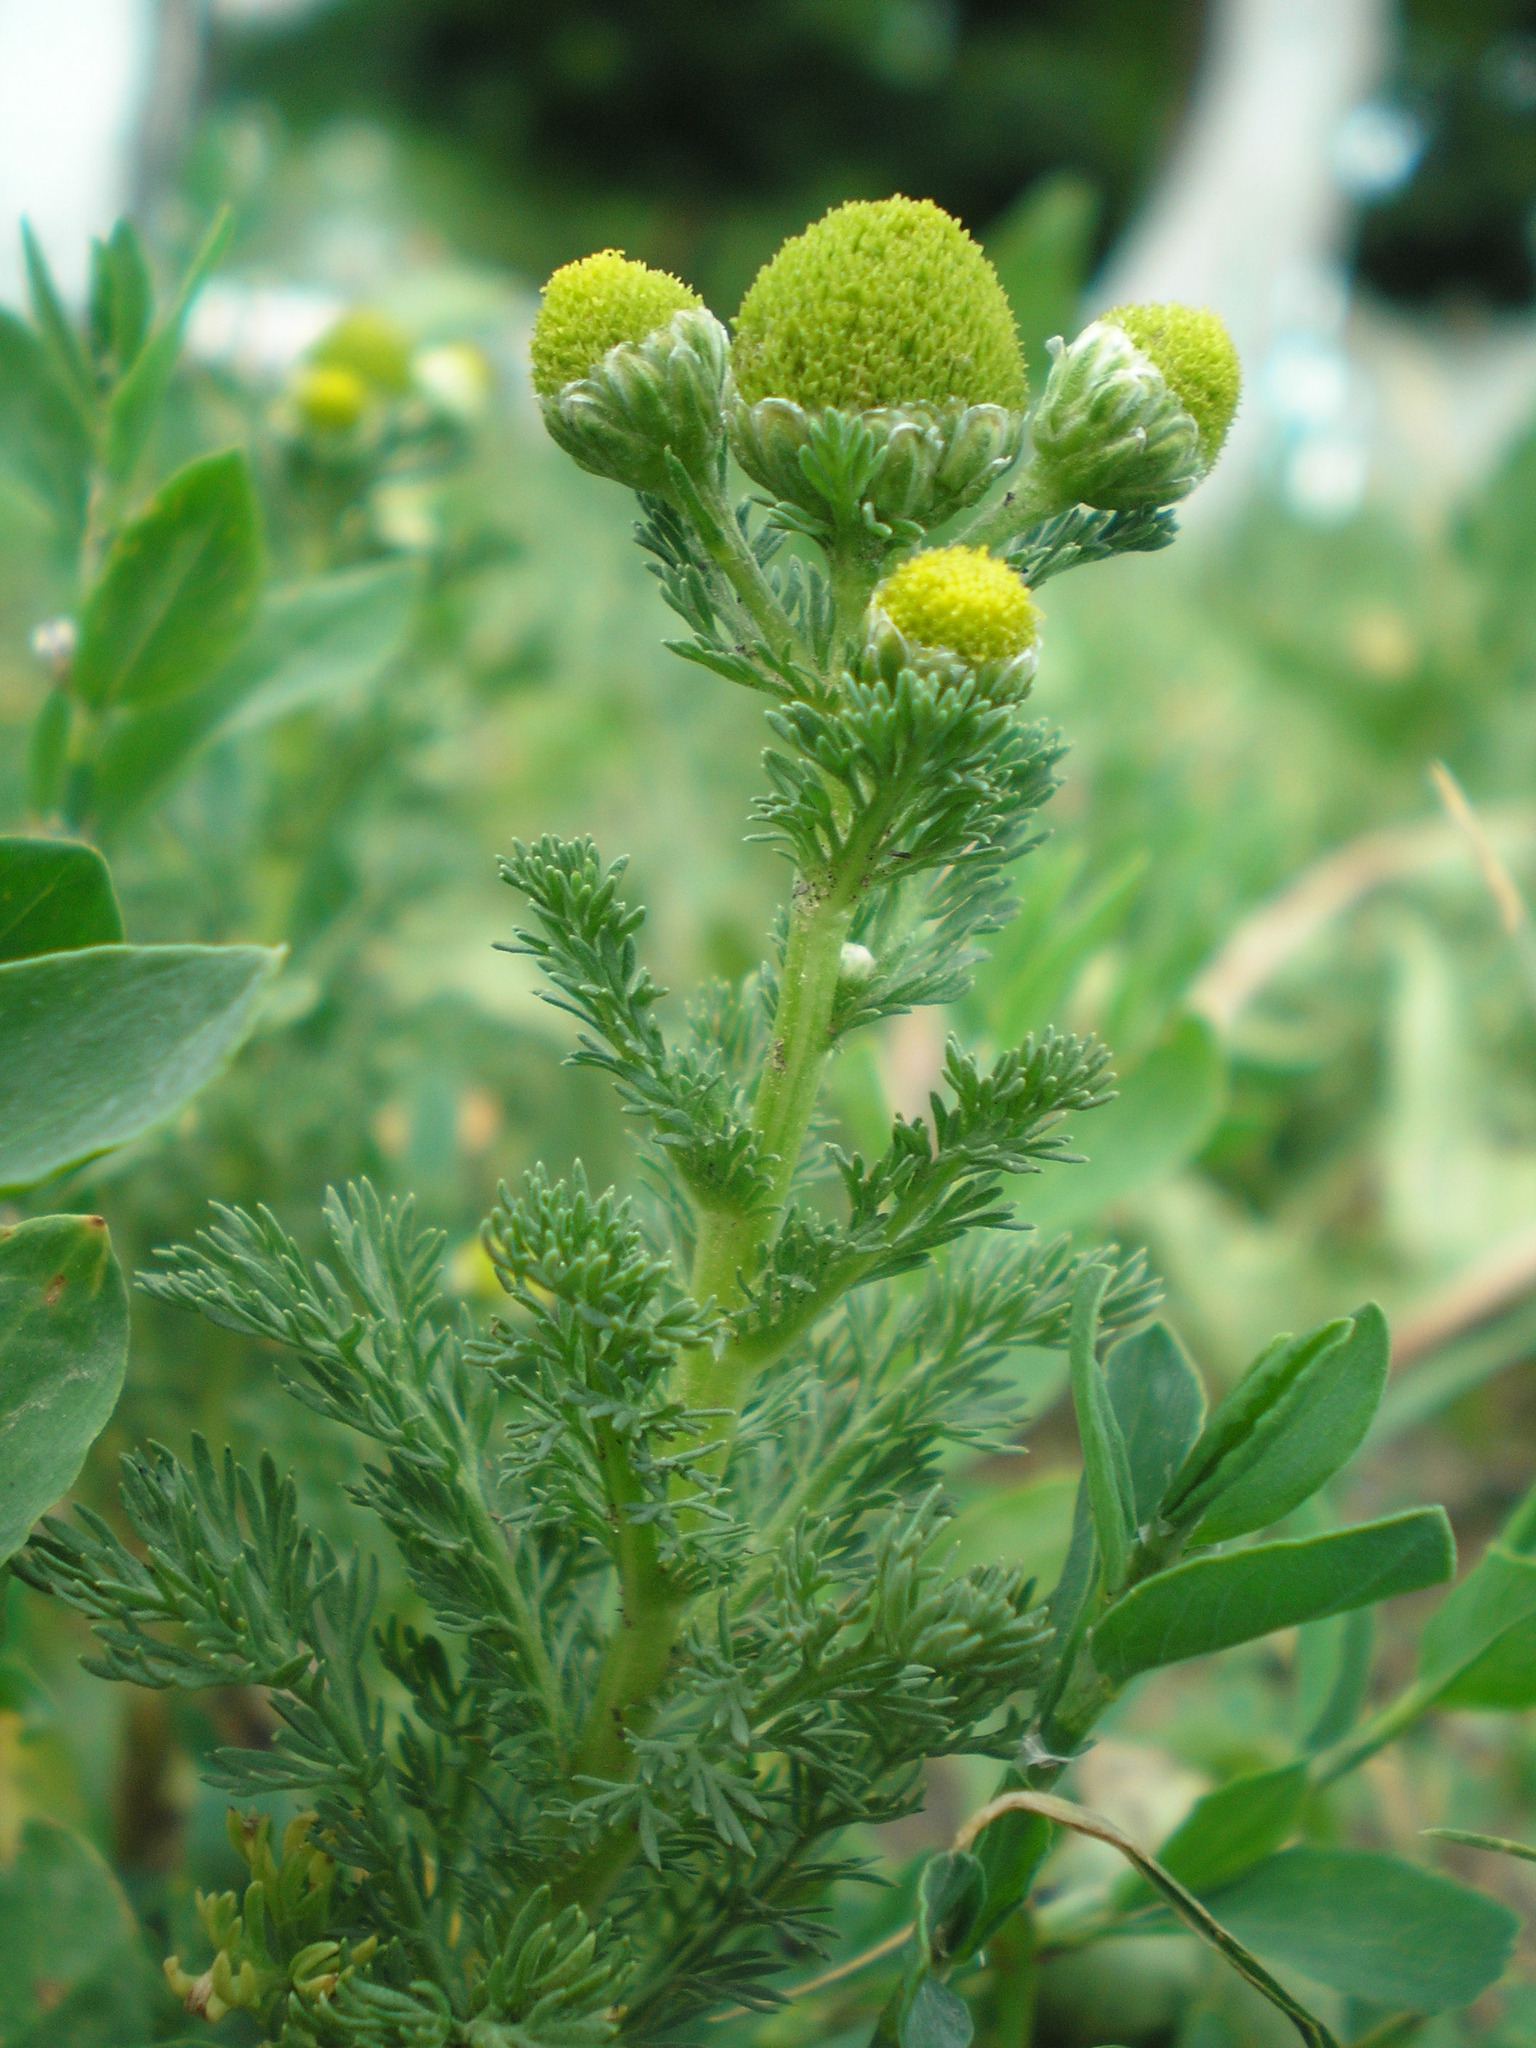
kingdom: Plantae
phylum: Tracheophyta
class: Magnoliopsida
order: Asterales
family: Asteraceae
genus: Matricaria
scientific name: Matricaria discoidea
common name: Disc mayweed
